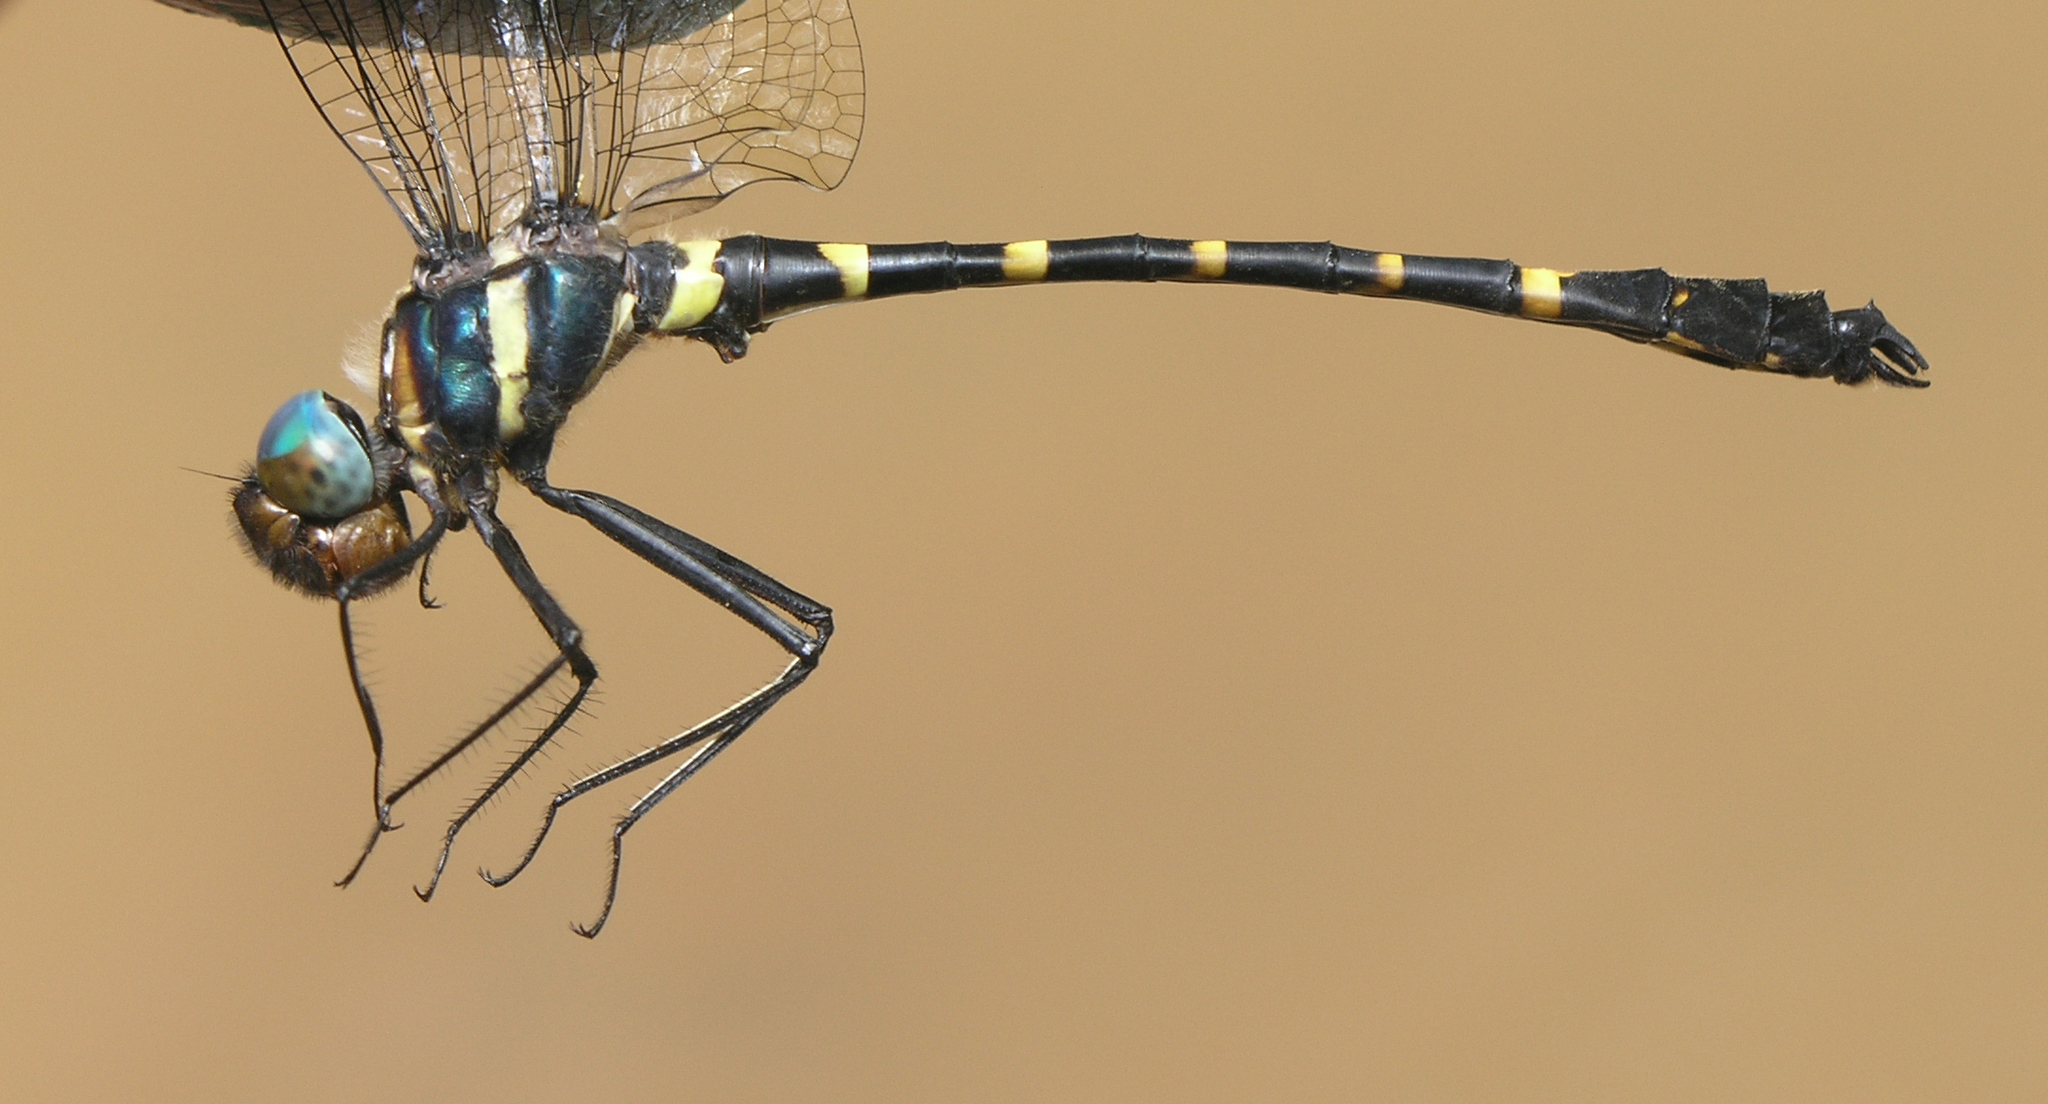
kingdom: Animalia
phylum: Arthropoda
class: Insecta
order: Odonata
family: Macromiidae
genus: Macromia
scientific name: Macromia aculeata
